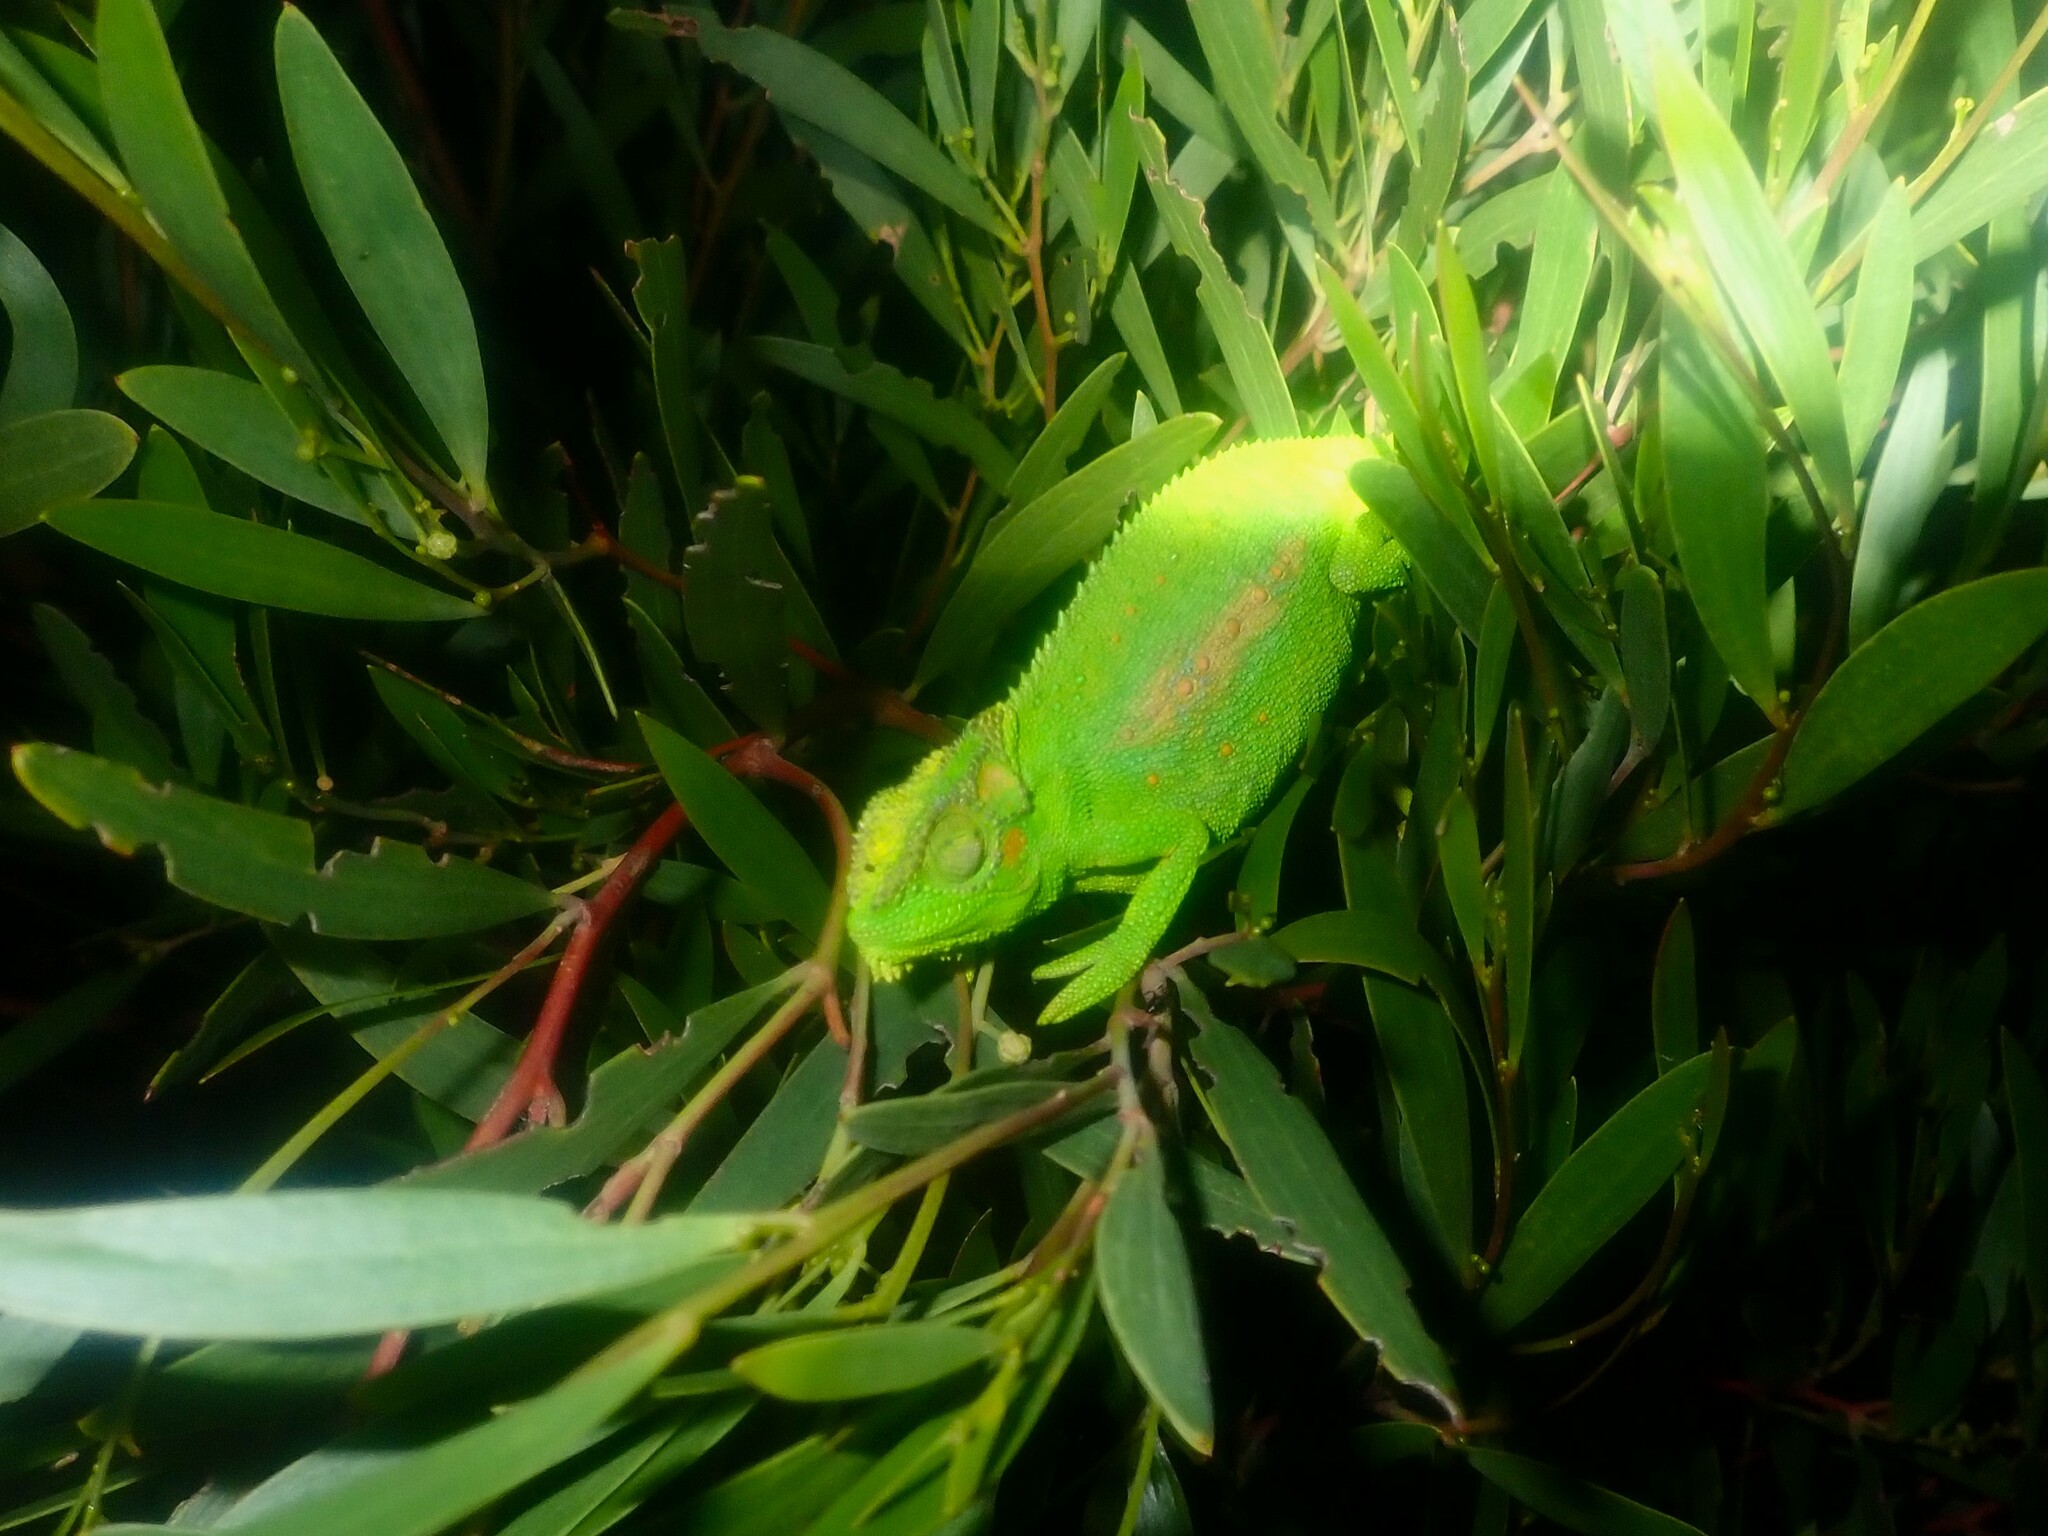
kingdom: Animalia
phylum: Chordata
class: Squamata
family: Chamaeleonidae
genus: Bradypodion
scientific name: Bradypodion pumilum
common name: Cape dwarf chameleon
